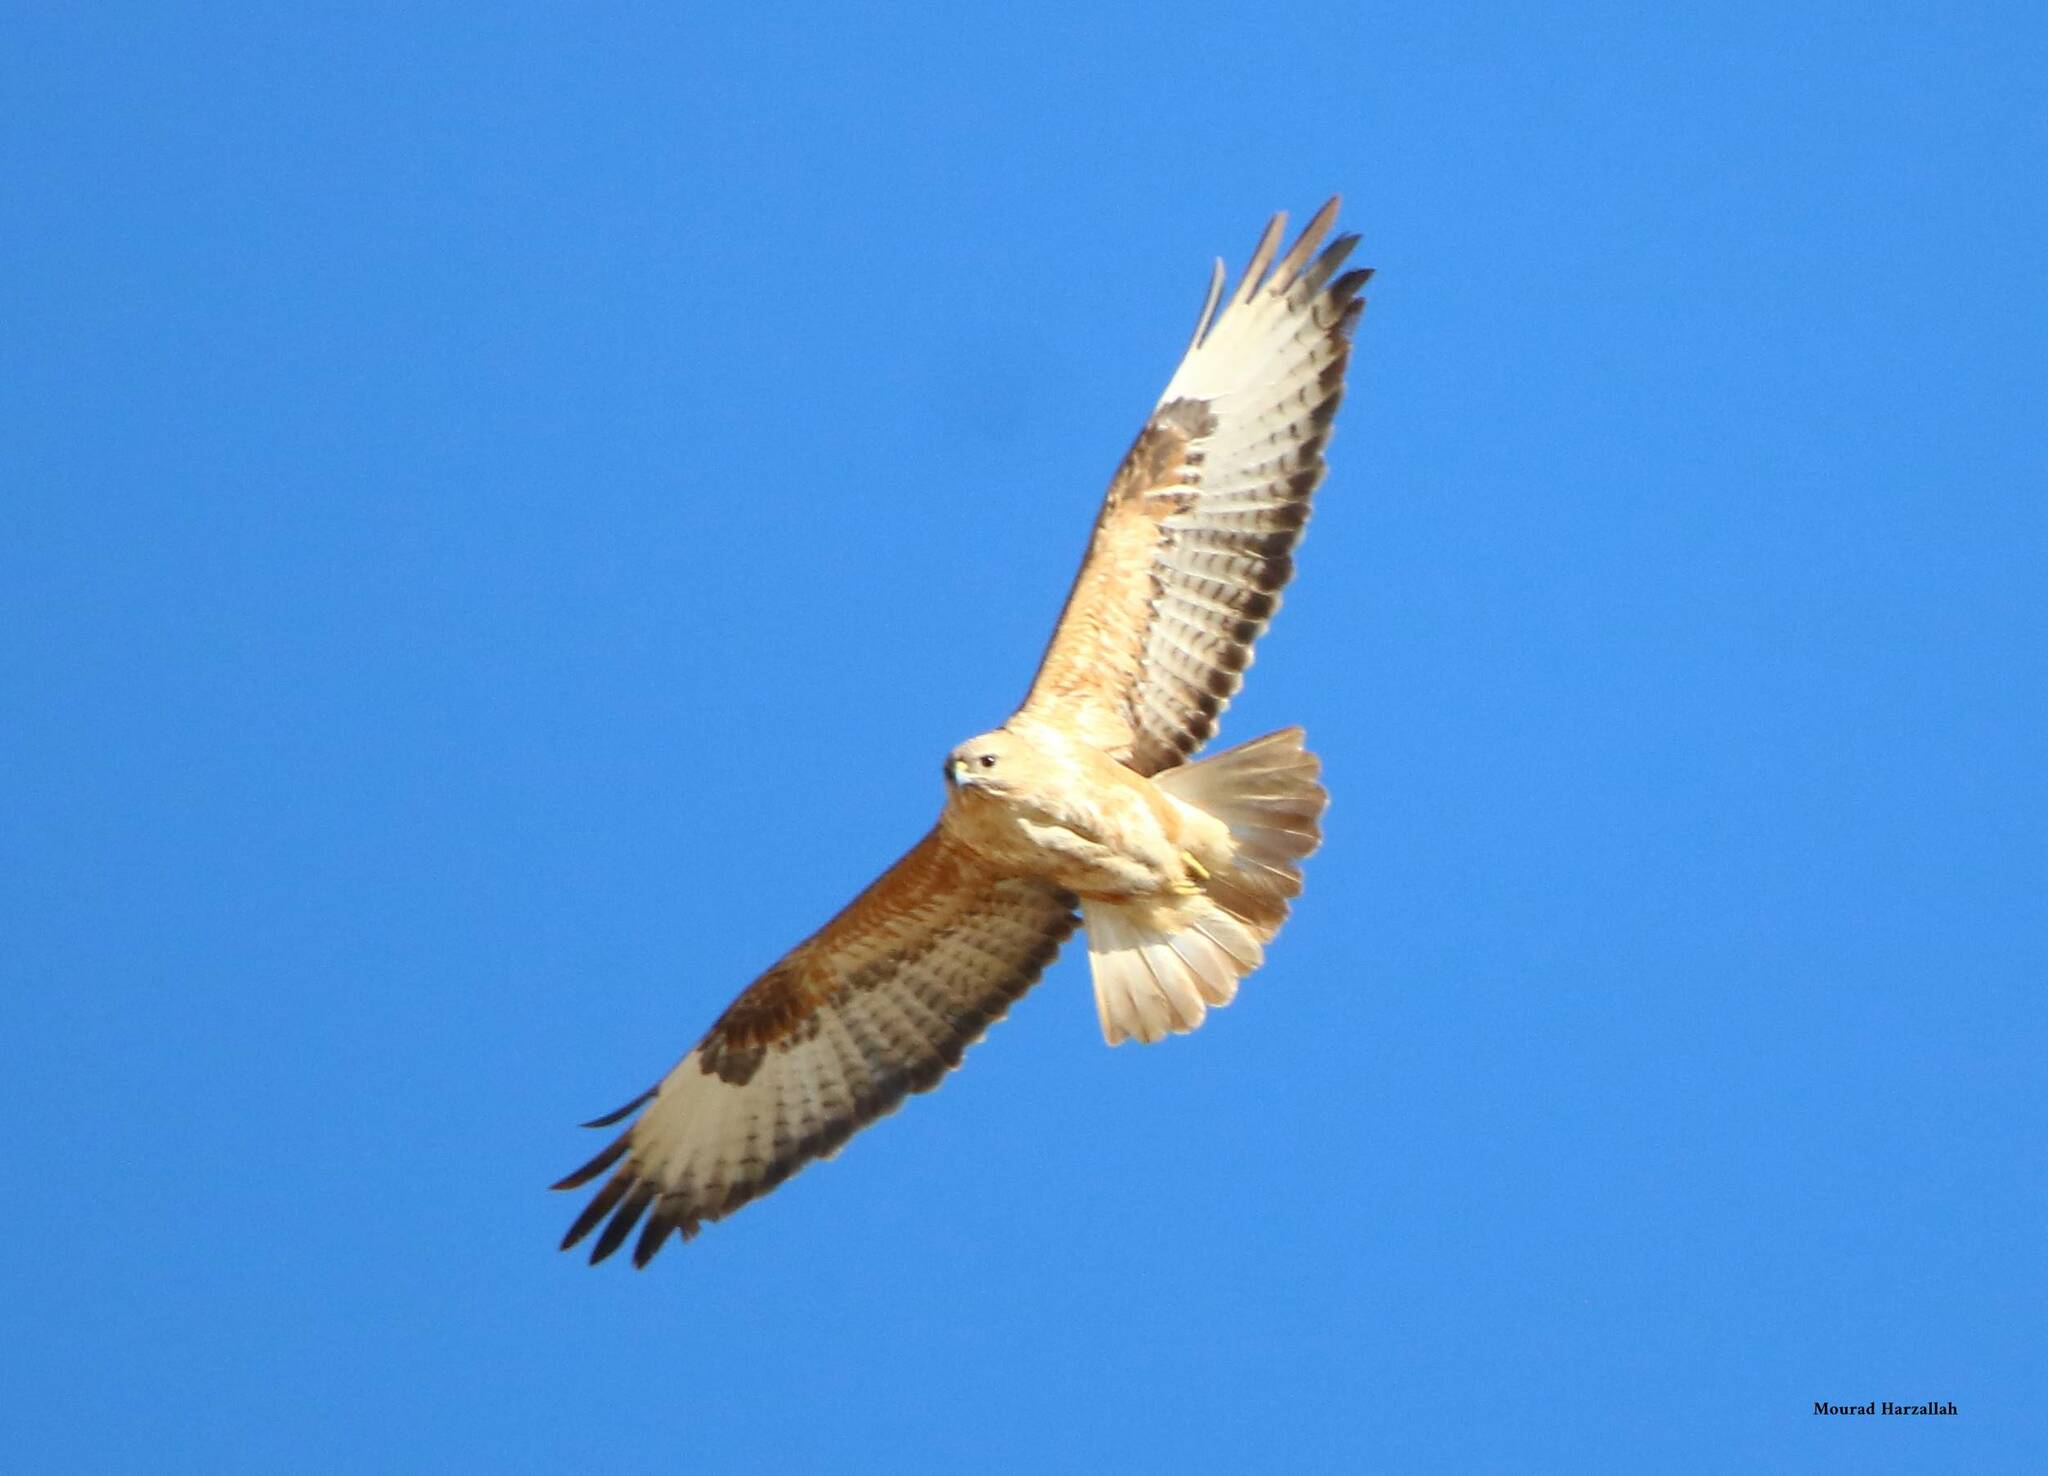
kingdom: Animalia
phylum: Chordata
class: Aves
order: Accipitriformes
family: Accipitridae
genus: Buteo
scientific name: Buteo rufinus
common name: Long-legged buzzard
